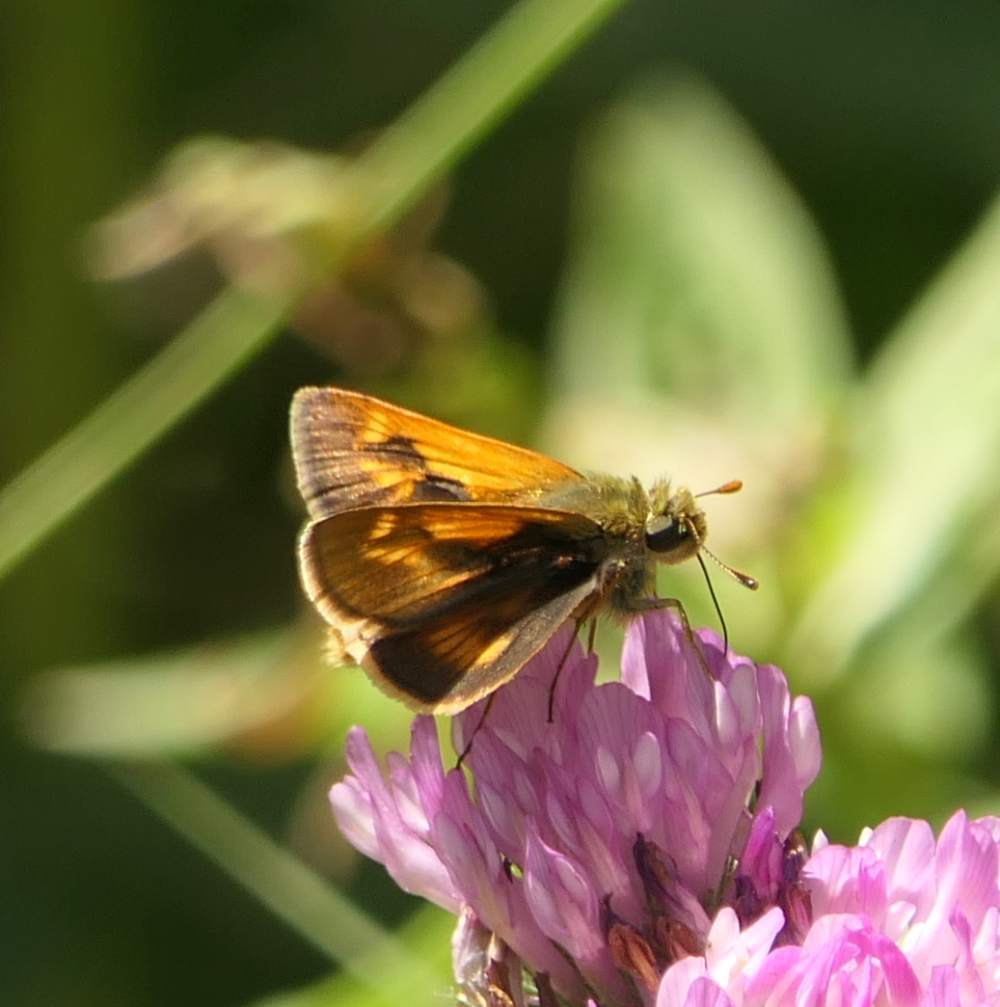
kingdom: Animalia
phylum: Arthropoda
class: Insecta
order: Lepidoptera
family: Hesperiidae
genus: Polites
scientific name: Polites mystic
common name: Long dash
